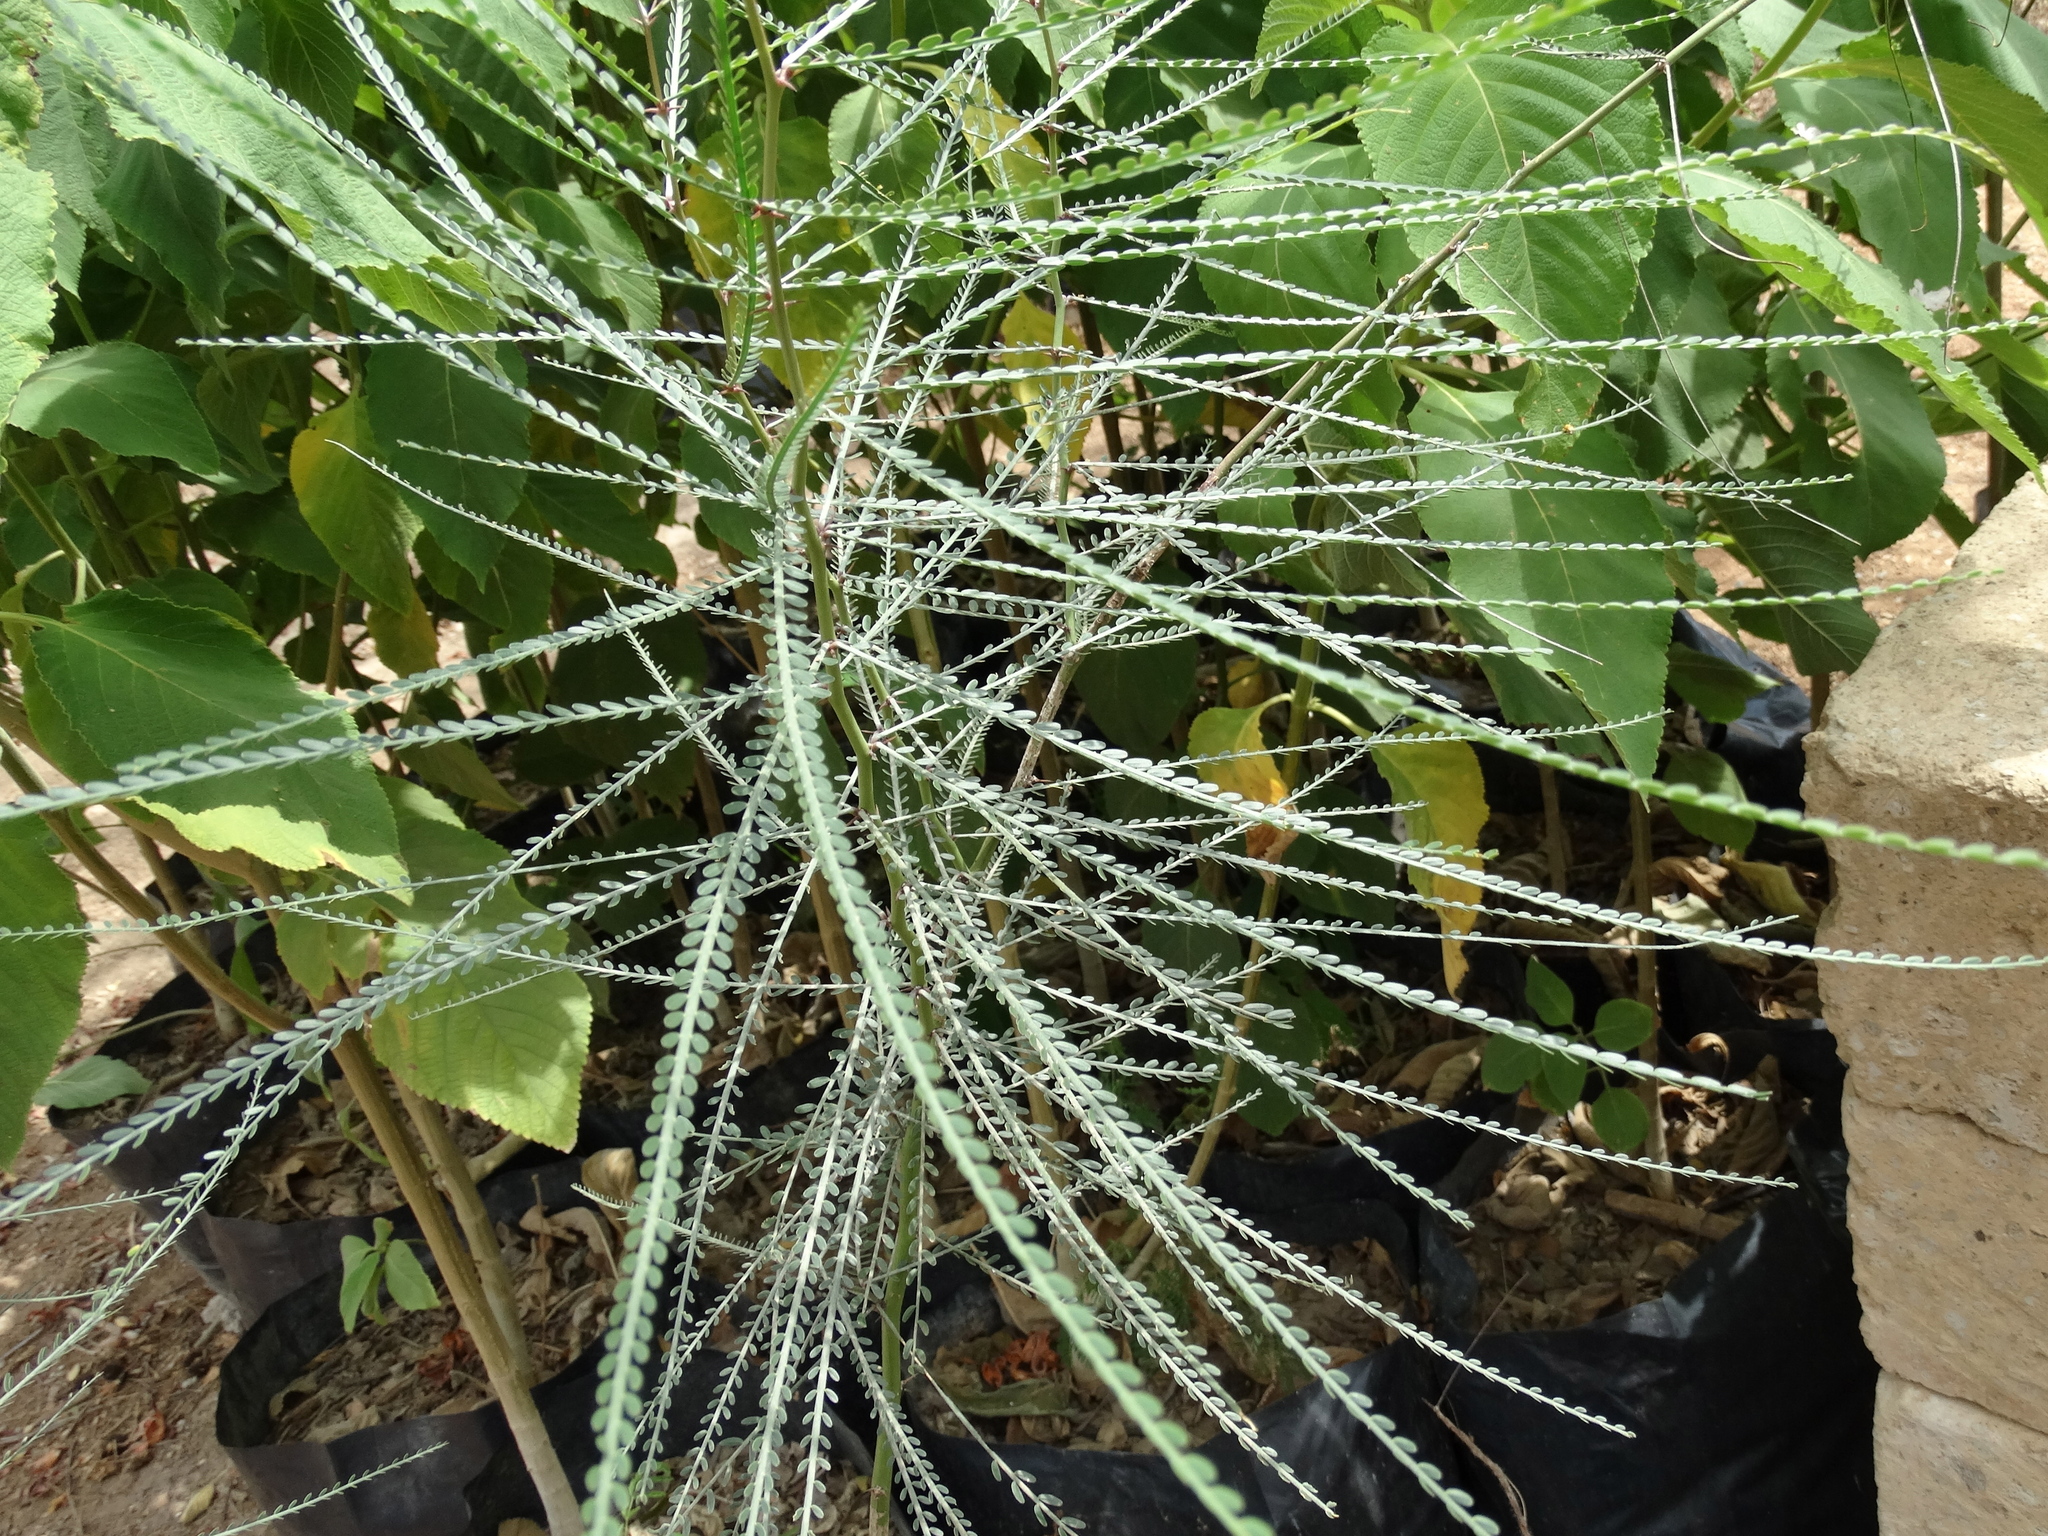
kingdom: Plantae
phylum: Tracheophyta
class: Magnoliopsida
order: Fabales
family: Fabaceae
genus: Parkinsonia
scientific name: Parkinsonia aculeata
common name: Jerusalem thorn
